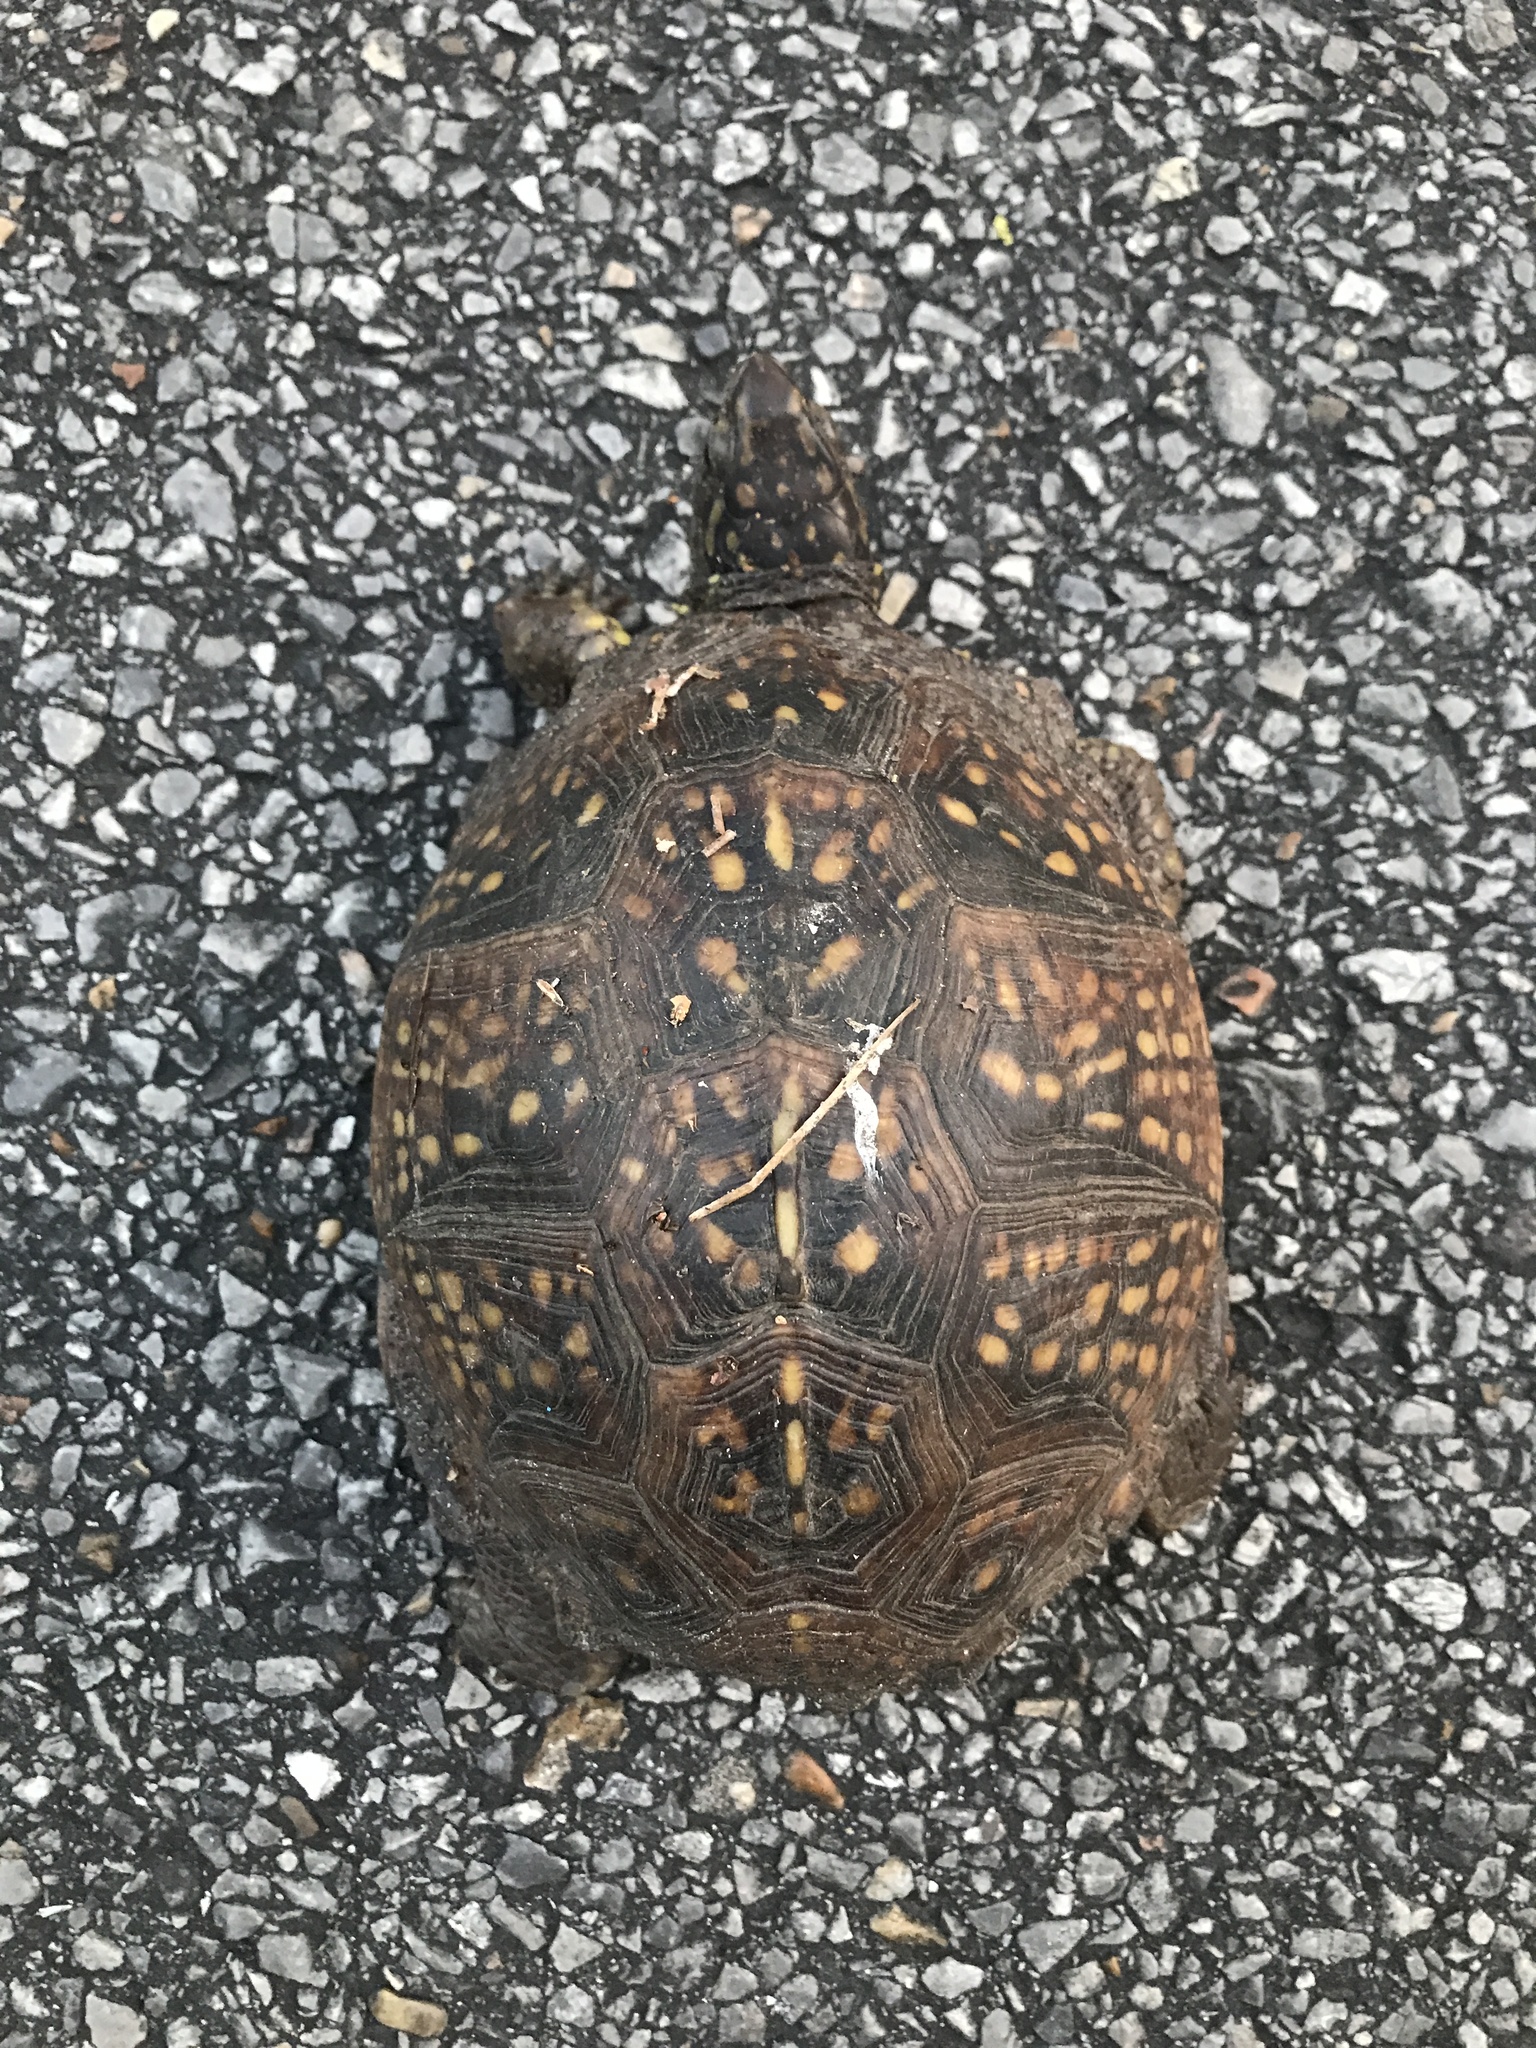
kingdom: Animalia
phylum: Chordata
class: Testudines
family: Emydidae
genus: Terrapene
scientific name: Terrapene carolina
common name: Common box turtle
